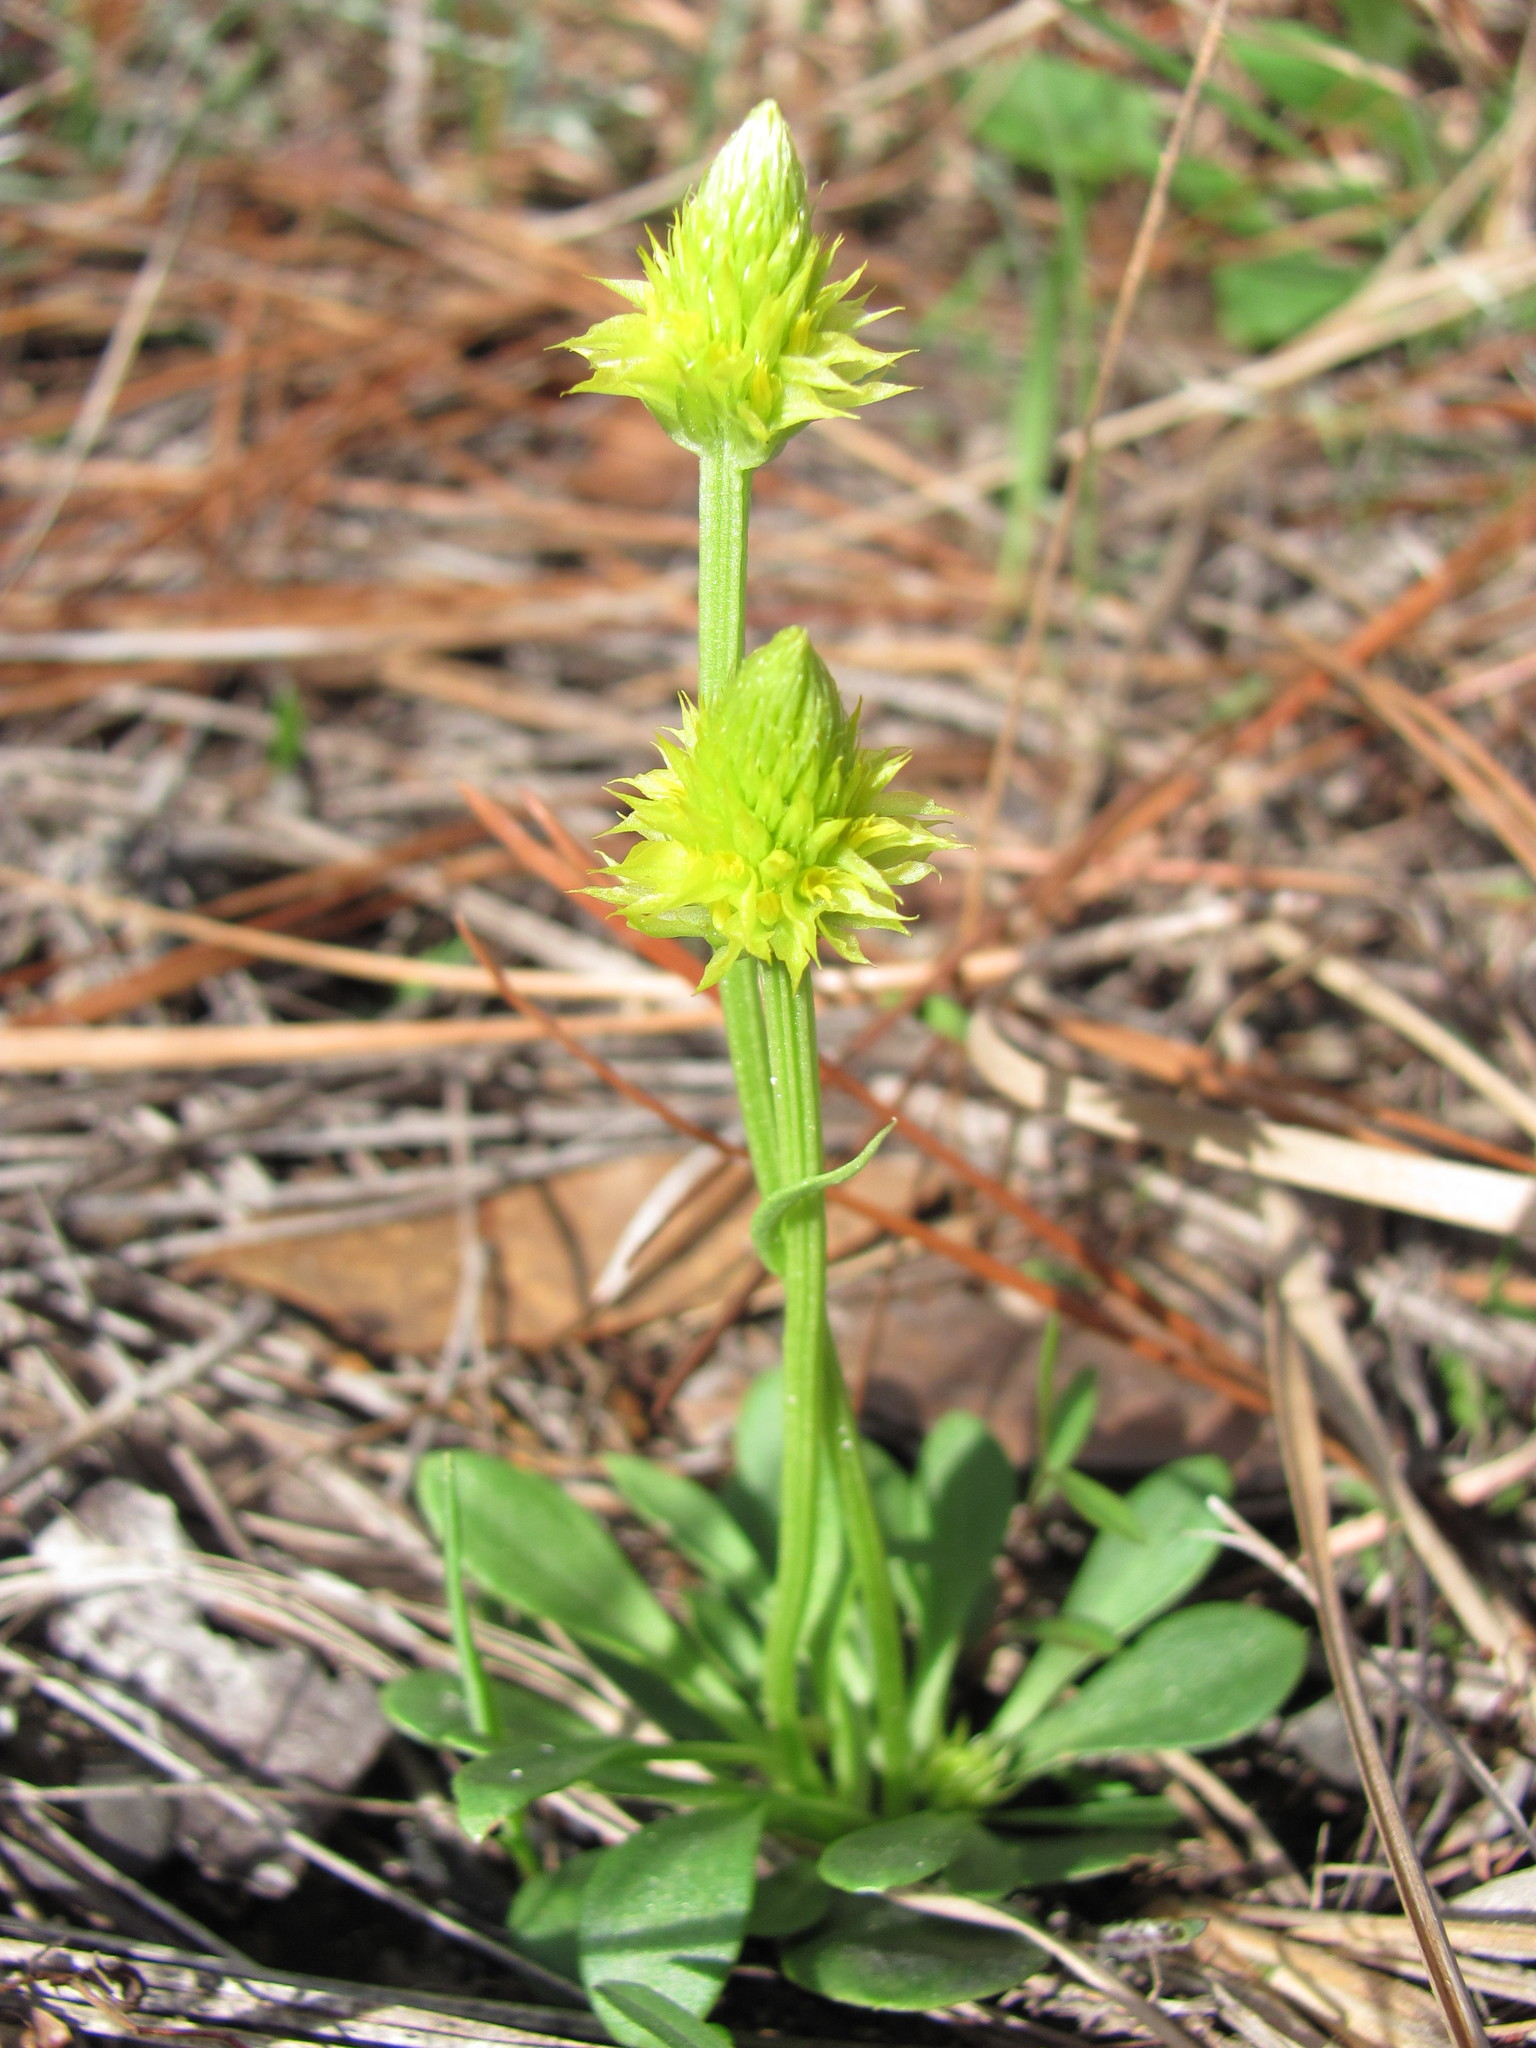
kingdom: Plantae
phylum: Tracheophyta
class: Magnoliopsida
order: Fabales
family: Polygalaceae
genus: Polygala
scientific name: Polygala nana
